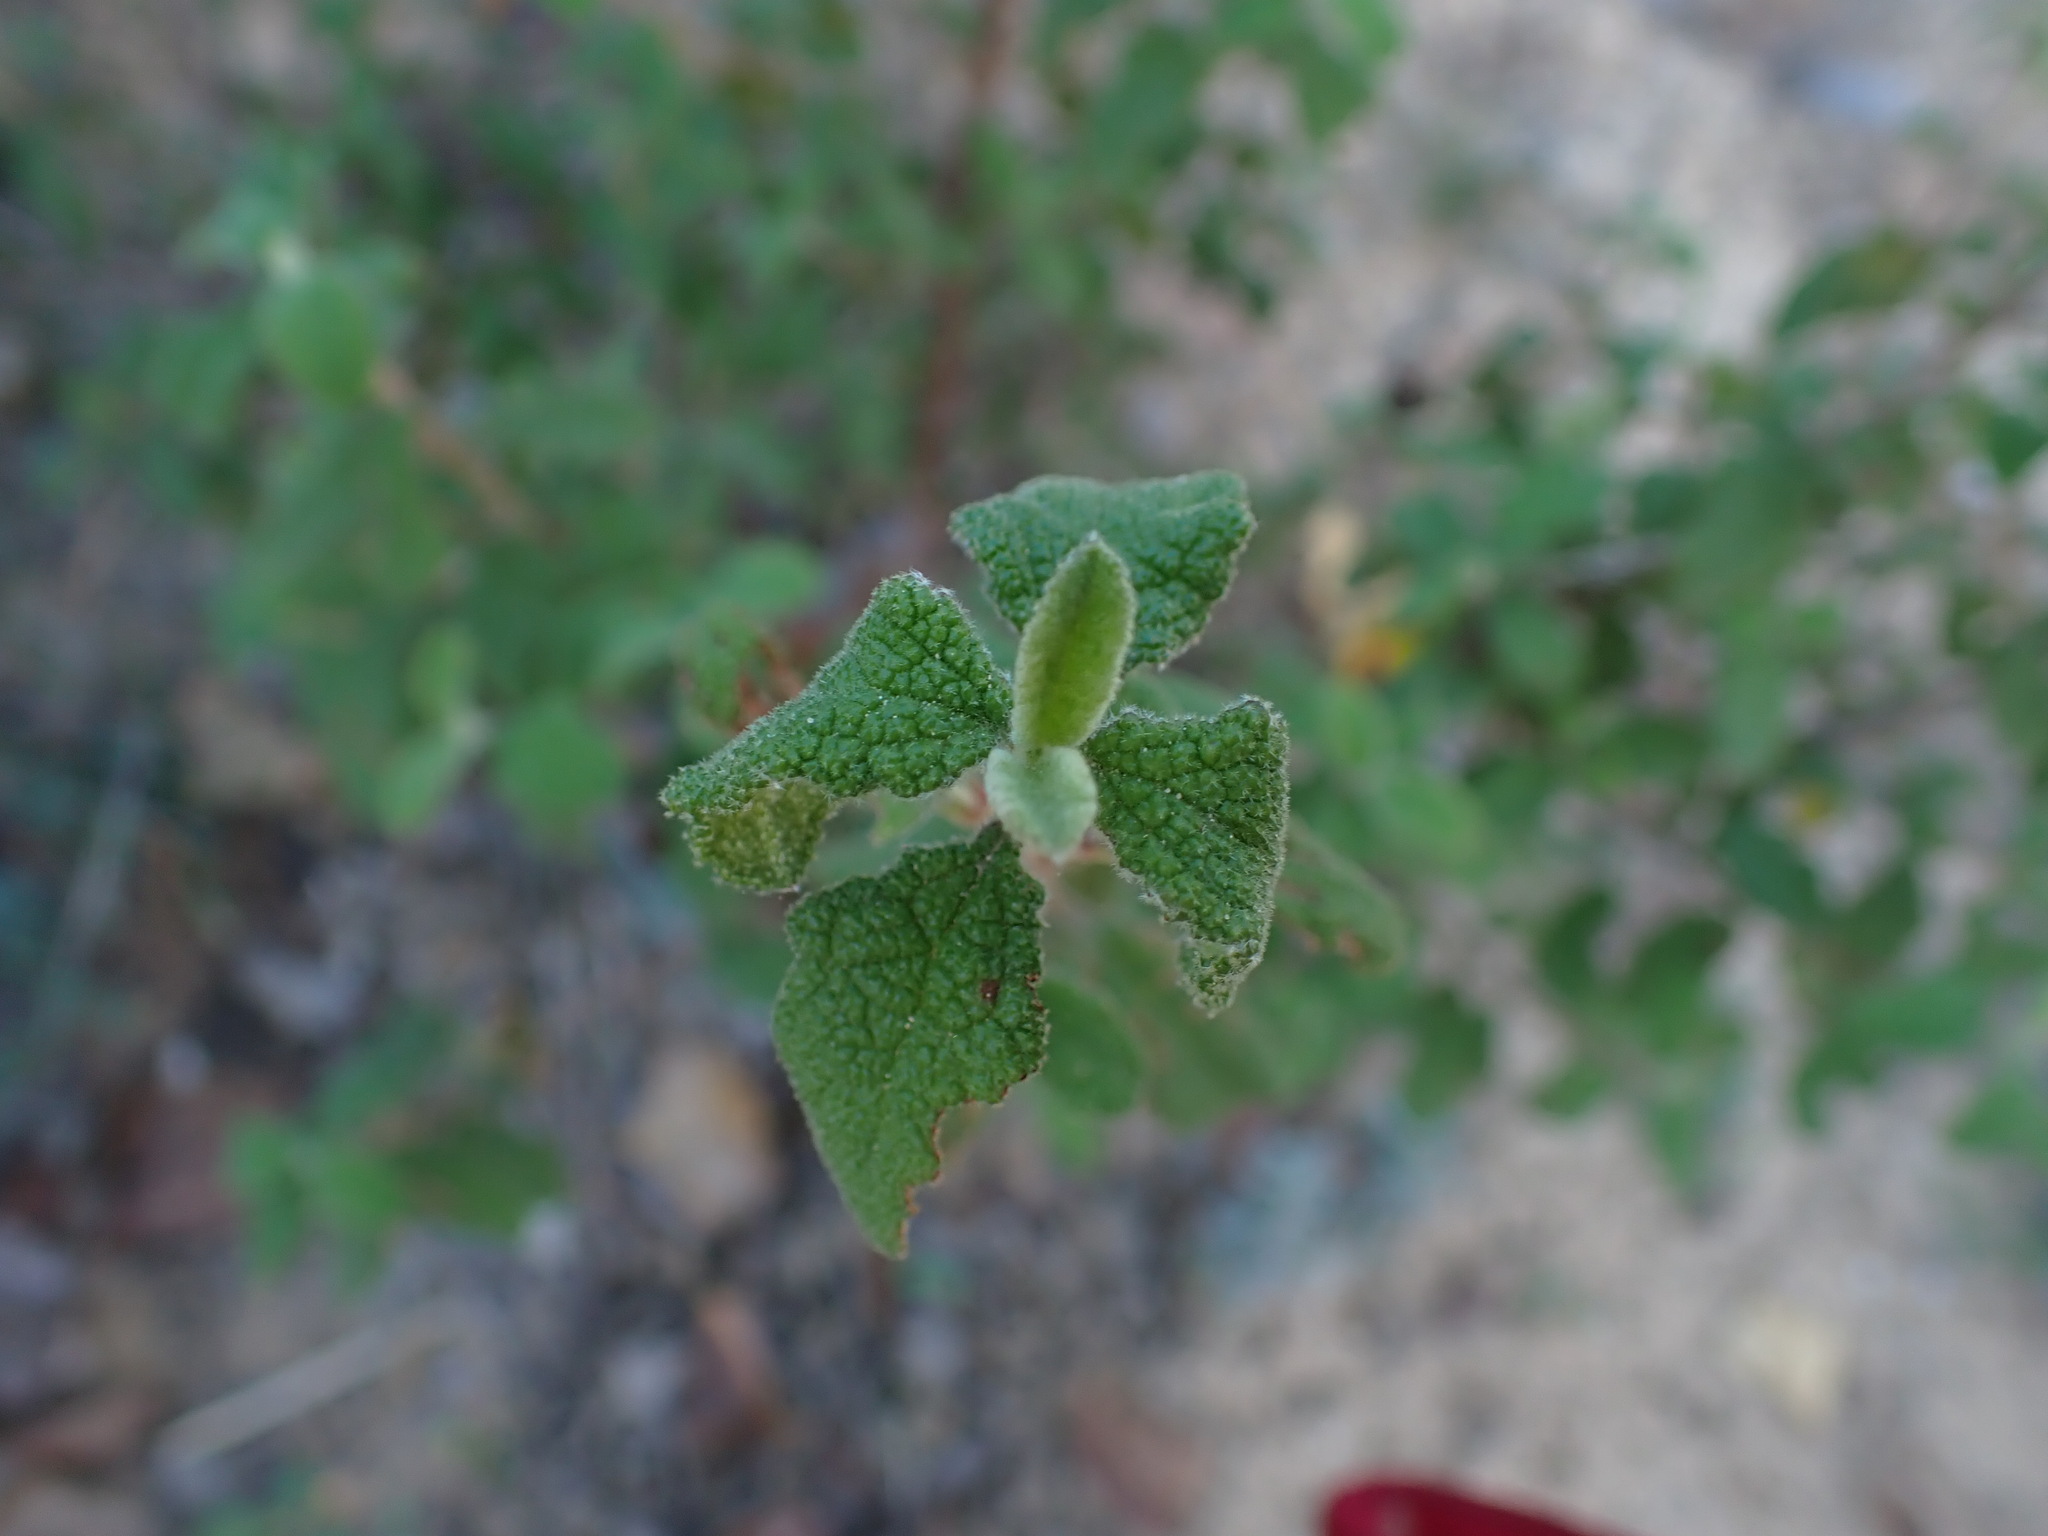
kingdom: Plantae
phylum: Tracheophyta
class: Magnoliopsida
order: Malvales
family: Cistaceae
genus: Cistus
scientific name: Cistus salviifolius
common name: Salvia cistus
